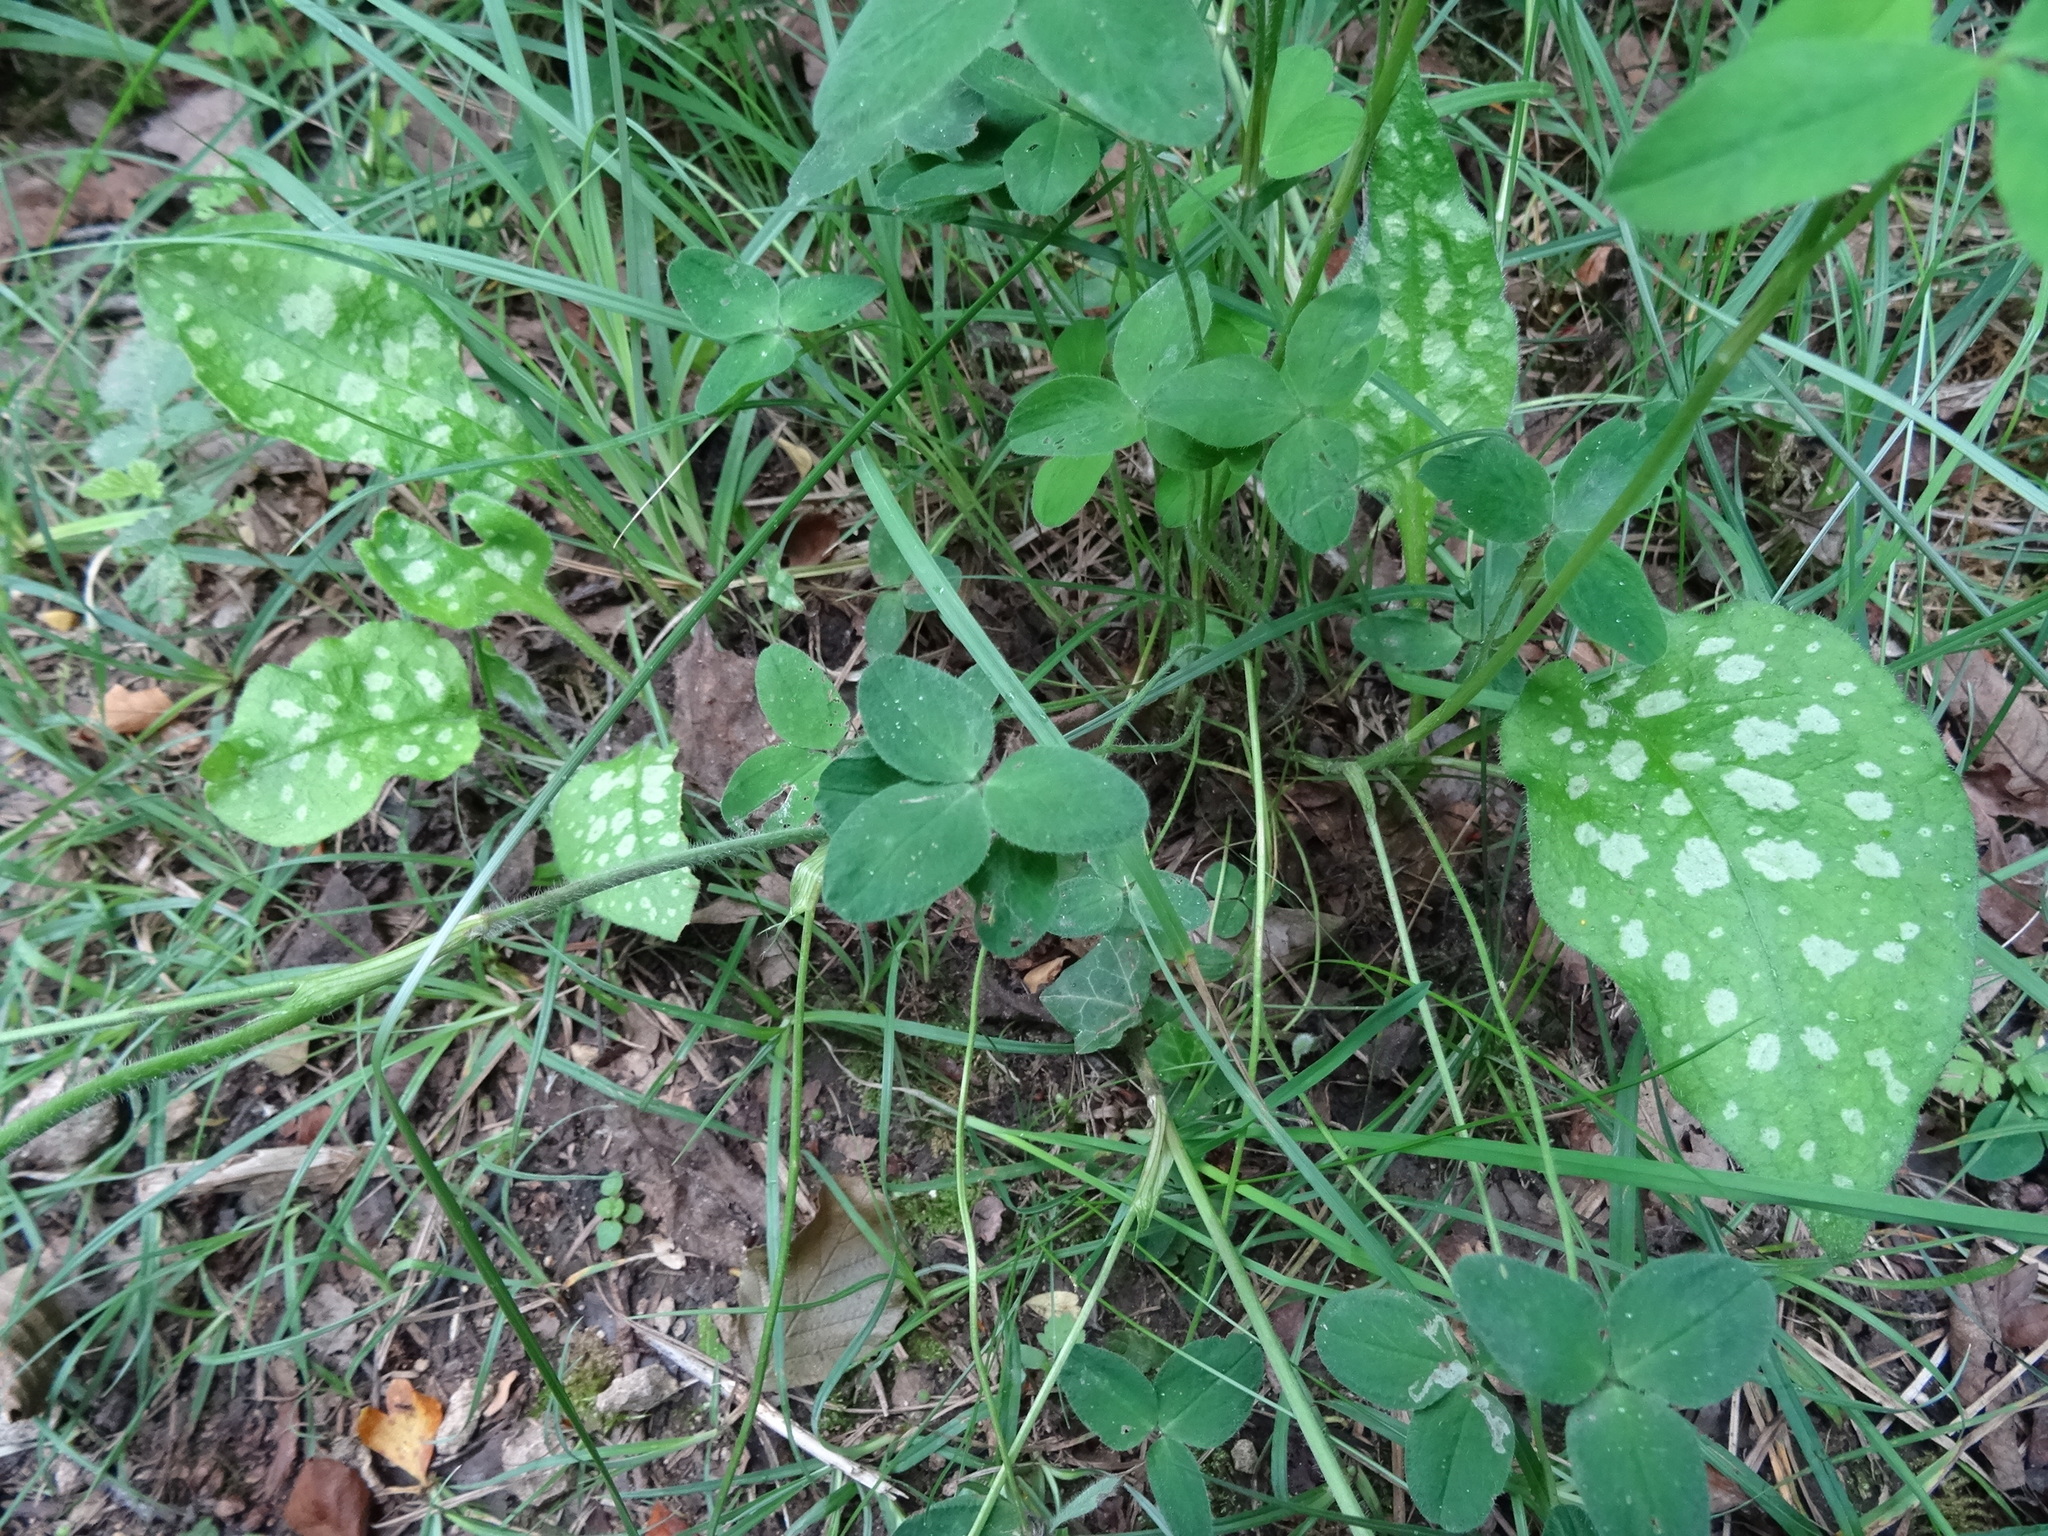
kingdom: Plantae
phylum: Tracheophyta
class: Magnoliopsida
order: Boraginales
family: Boraginaceae
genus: Pulmonaria
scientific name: Pulmonaria officinalis
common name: Lungwort
